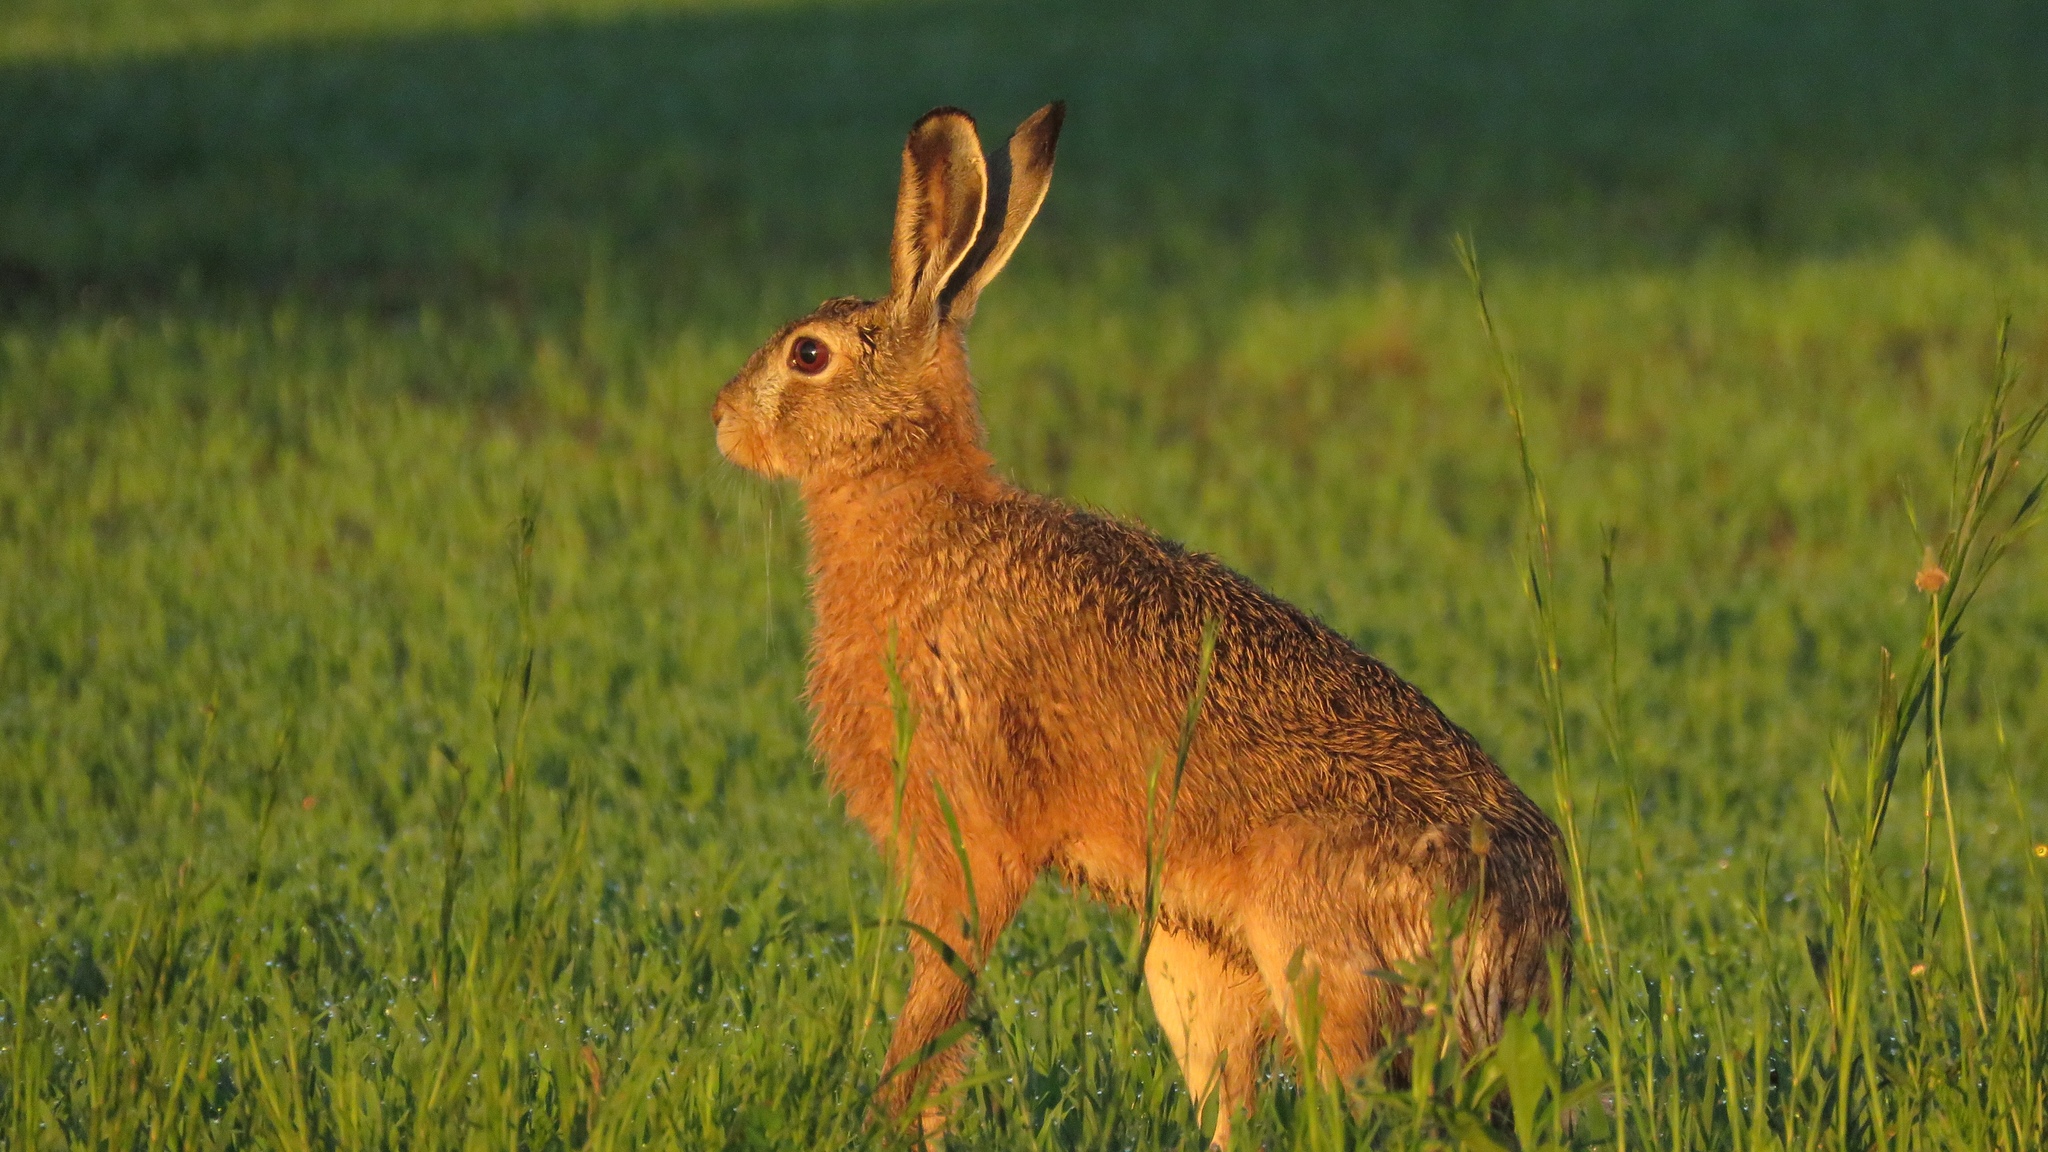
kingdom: Animalia
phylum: Chordata
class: Mammalia
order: Lagomorpha
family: Leporidae
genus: Lepus
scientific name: Lepus europaeus
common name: European hare
